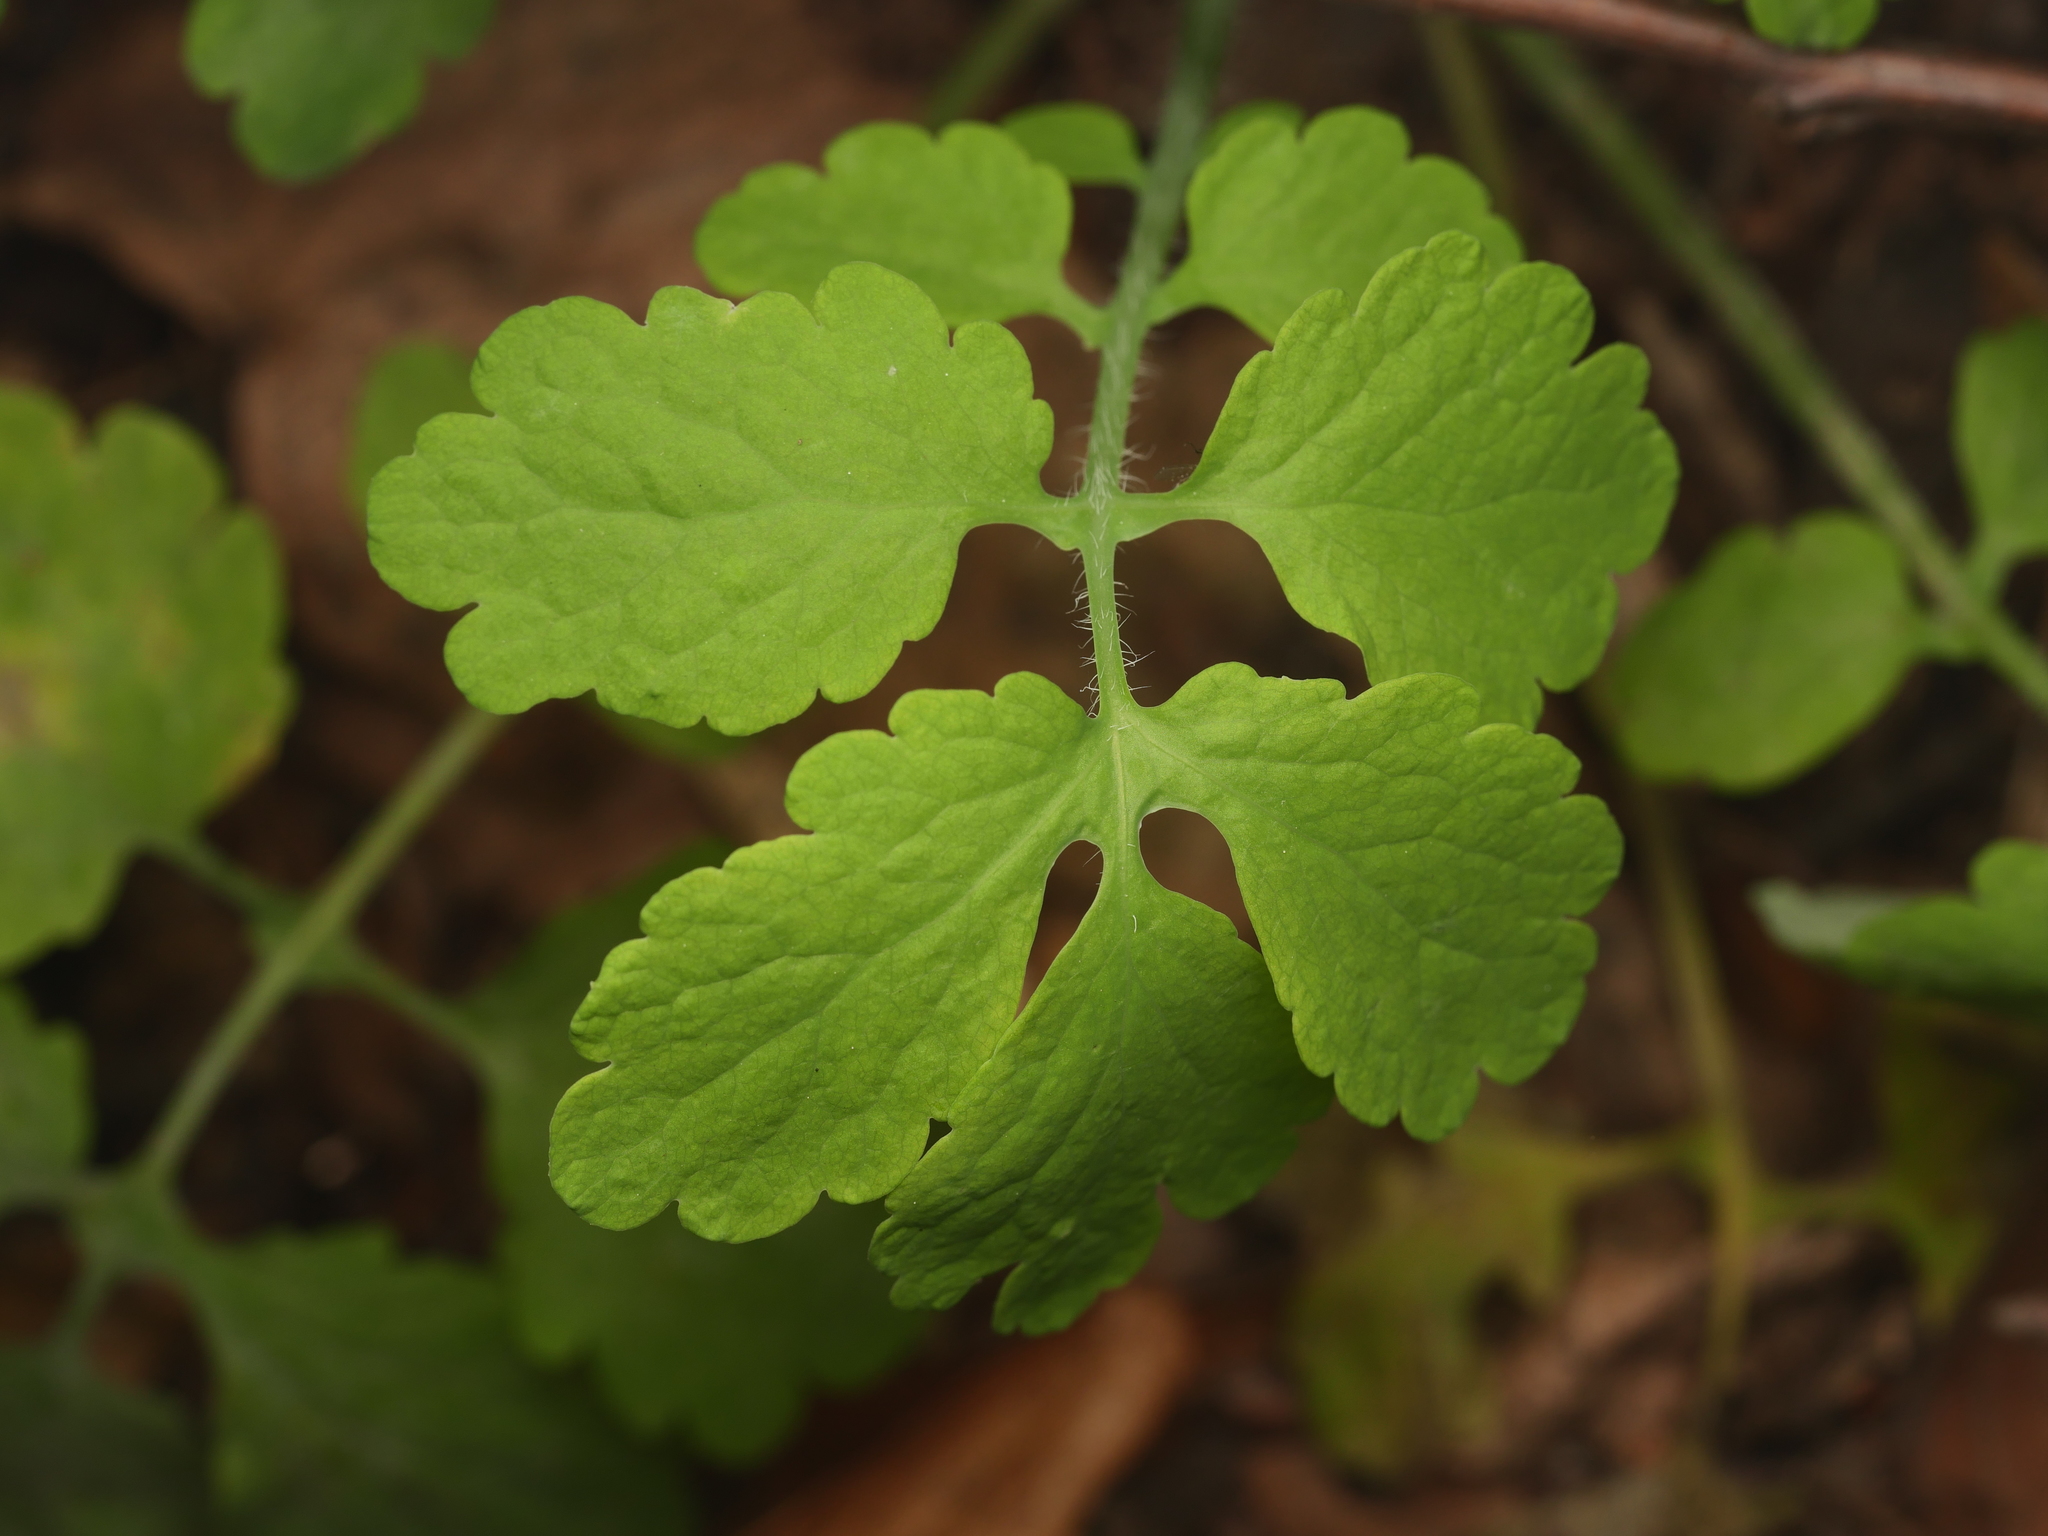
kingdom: Plantae
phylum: Tracheophyta
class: Magnoliopsida
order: Ranunculales
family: Papaveraceae
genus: Chelidonium
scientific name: Chelidonium majus
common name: Greater celandine
